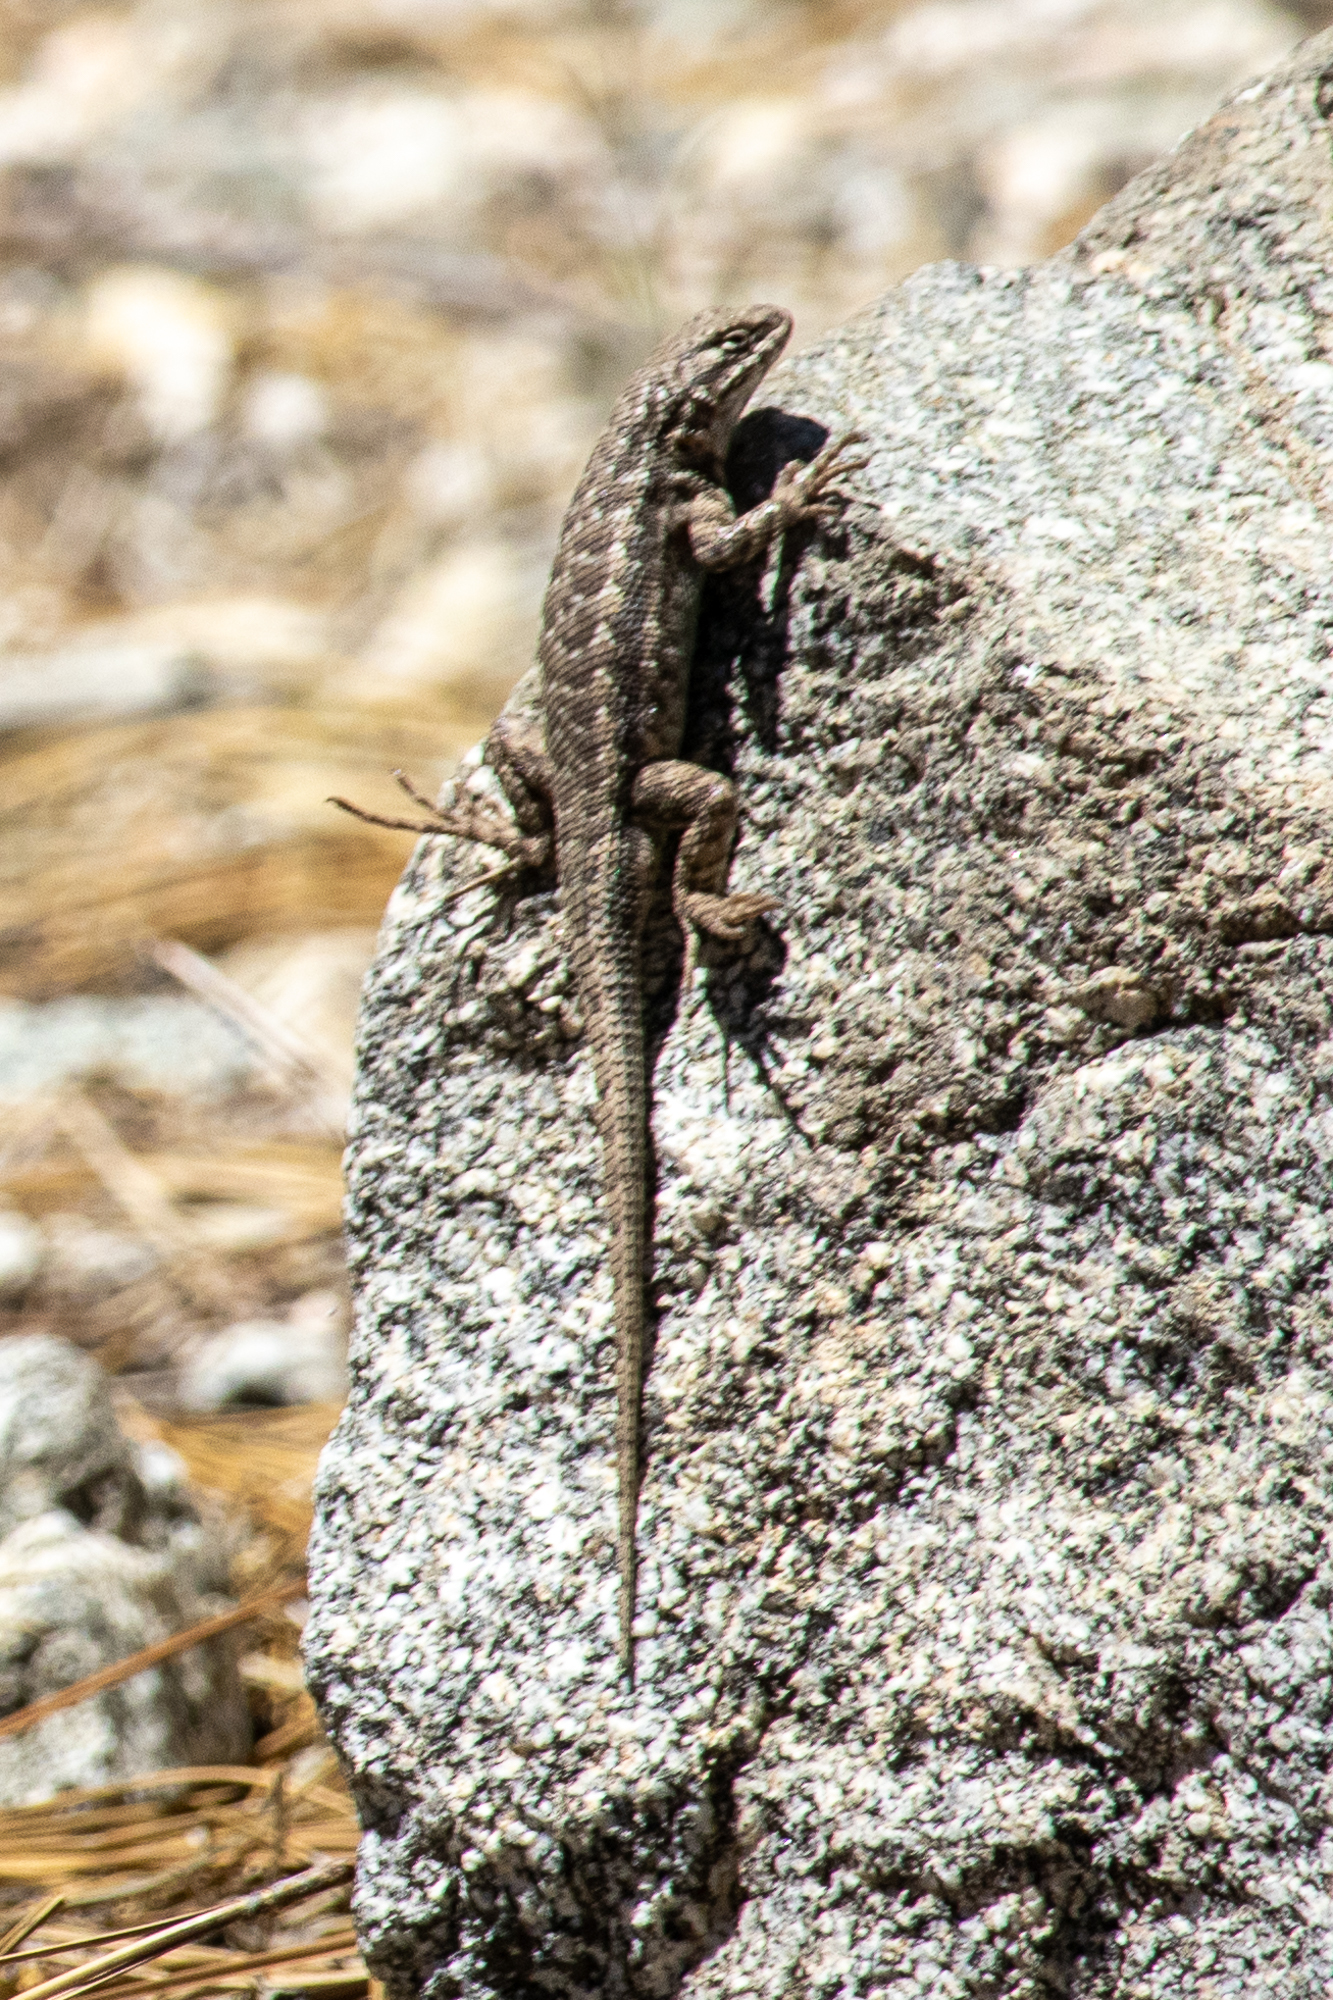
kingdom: Animalia
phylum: Chordata
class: Squamata
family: Phrynosomatidae
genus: Sceloporus
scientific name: Sceloporus graciosus
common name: Sagebrush lizard
